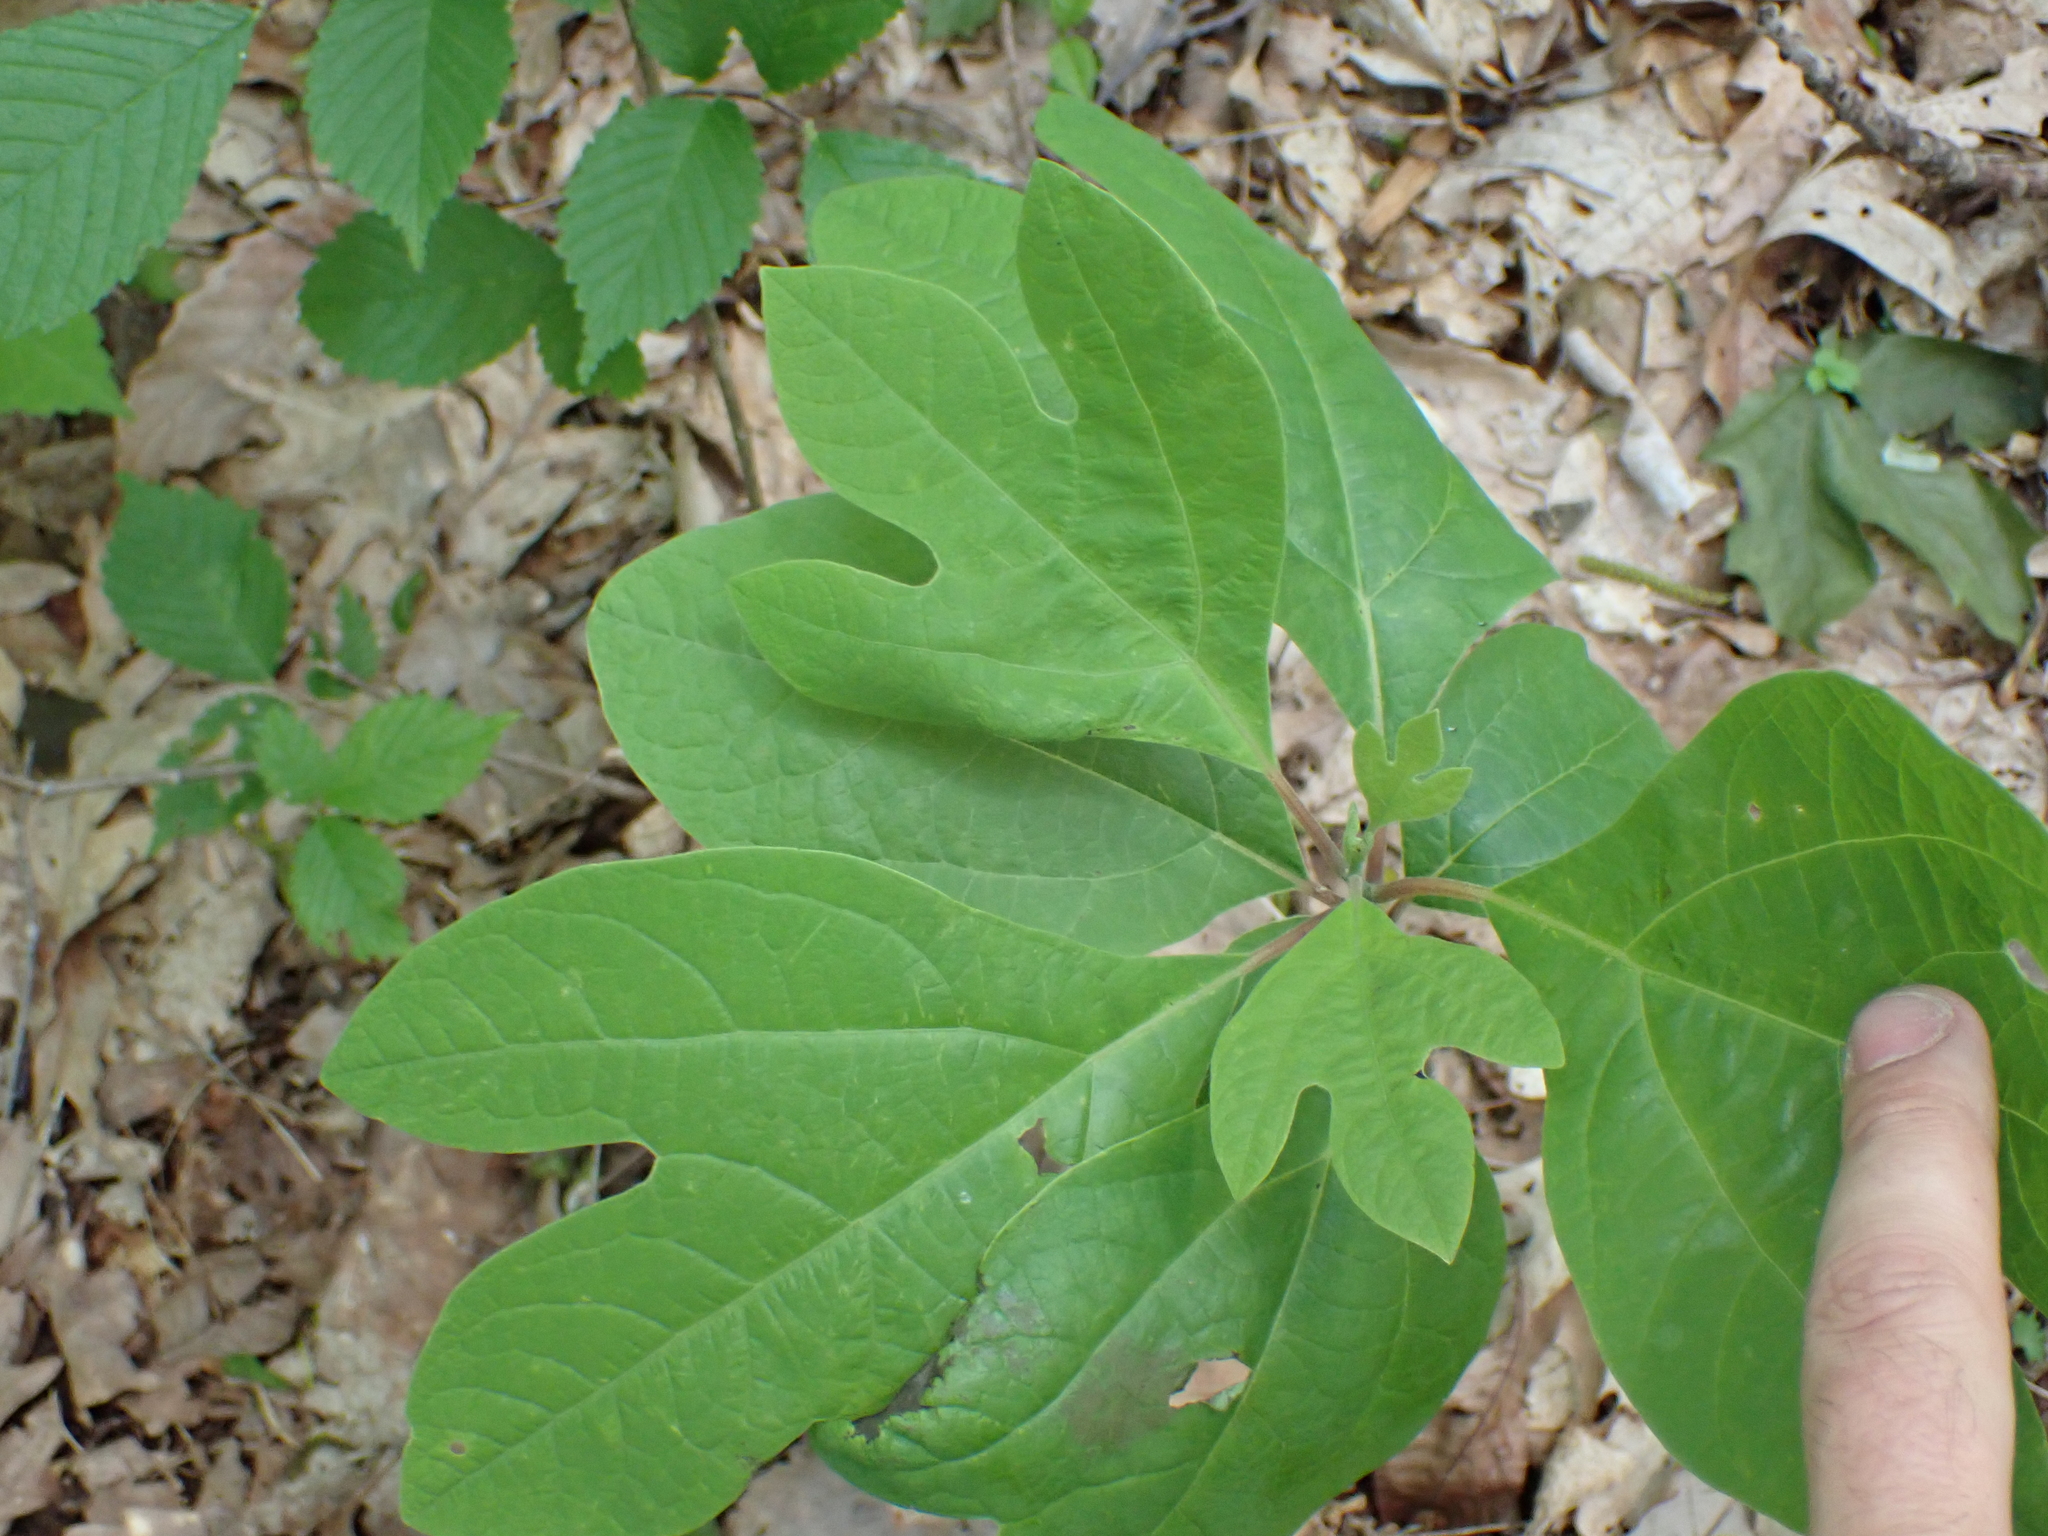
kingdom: Plantae
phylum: Tracheophyta
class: Magnoliopsida
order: Laurales
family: Lauraceae
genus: Sassafras
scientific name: Sassafras albidum
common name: Sassafras
